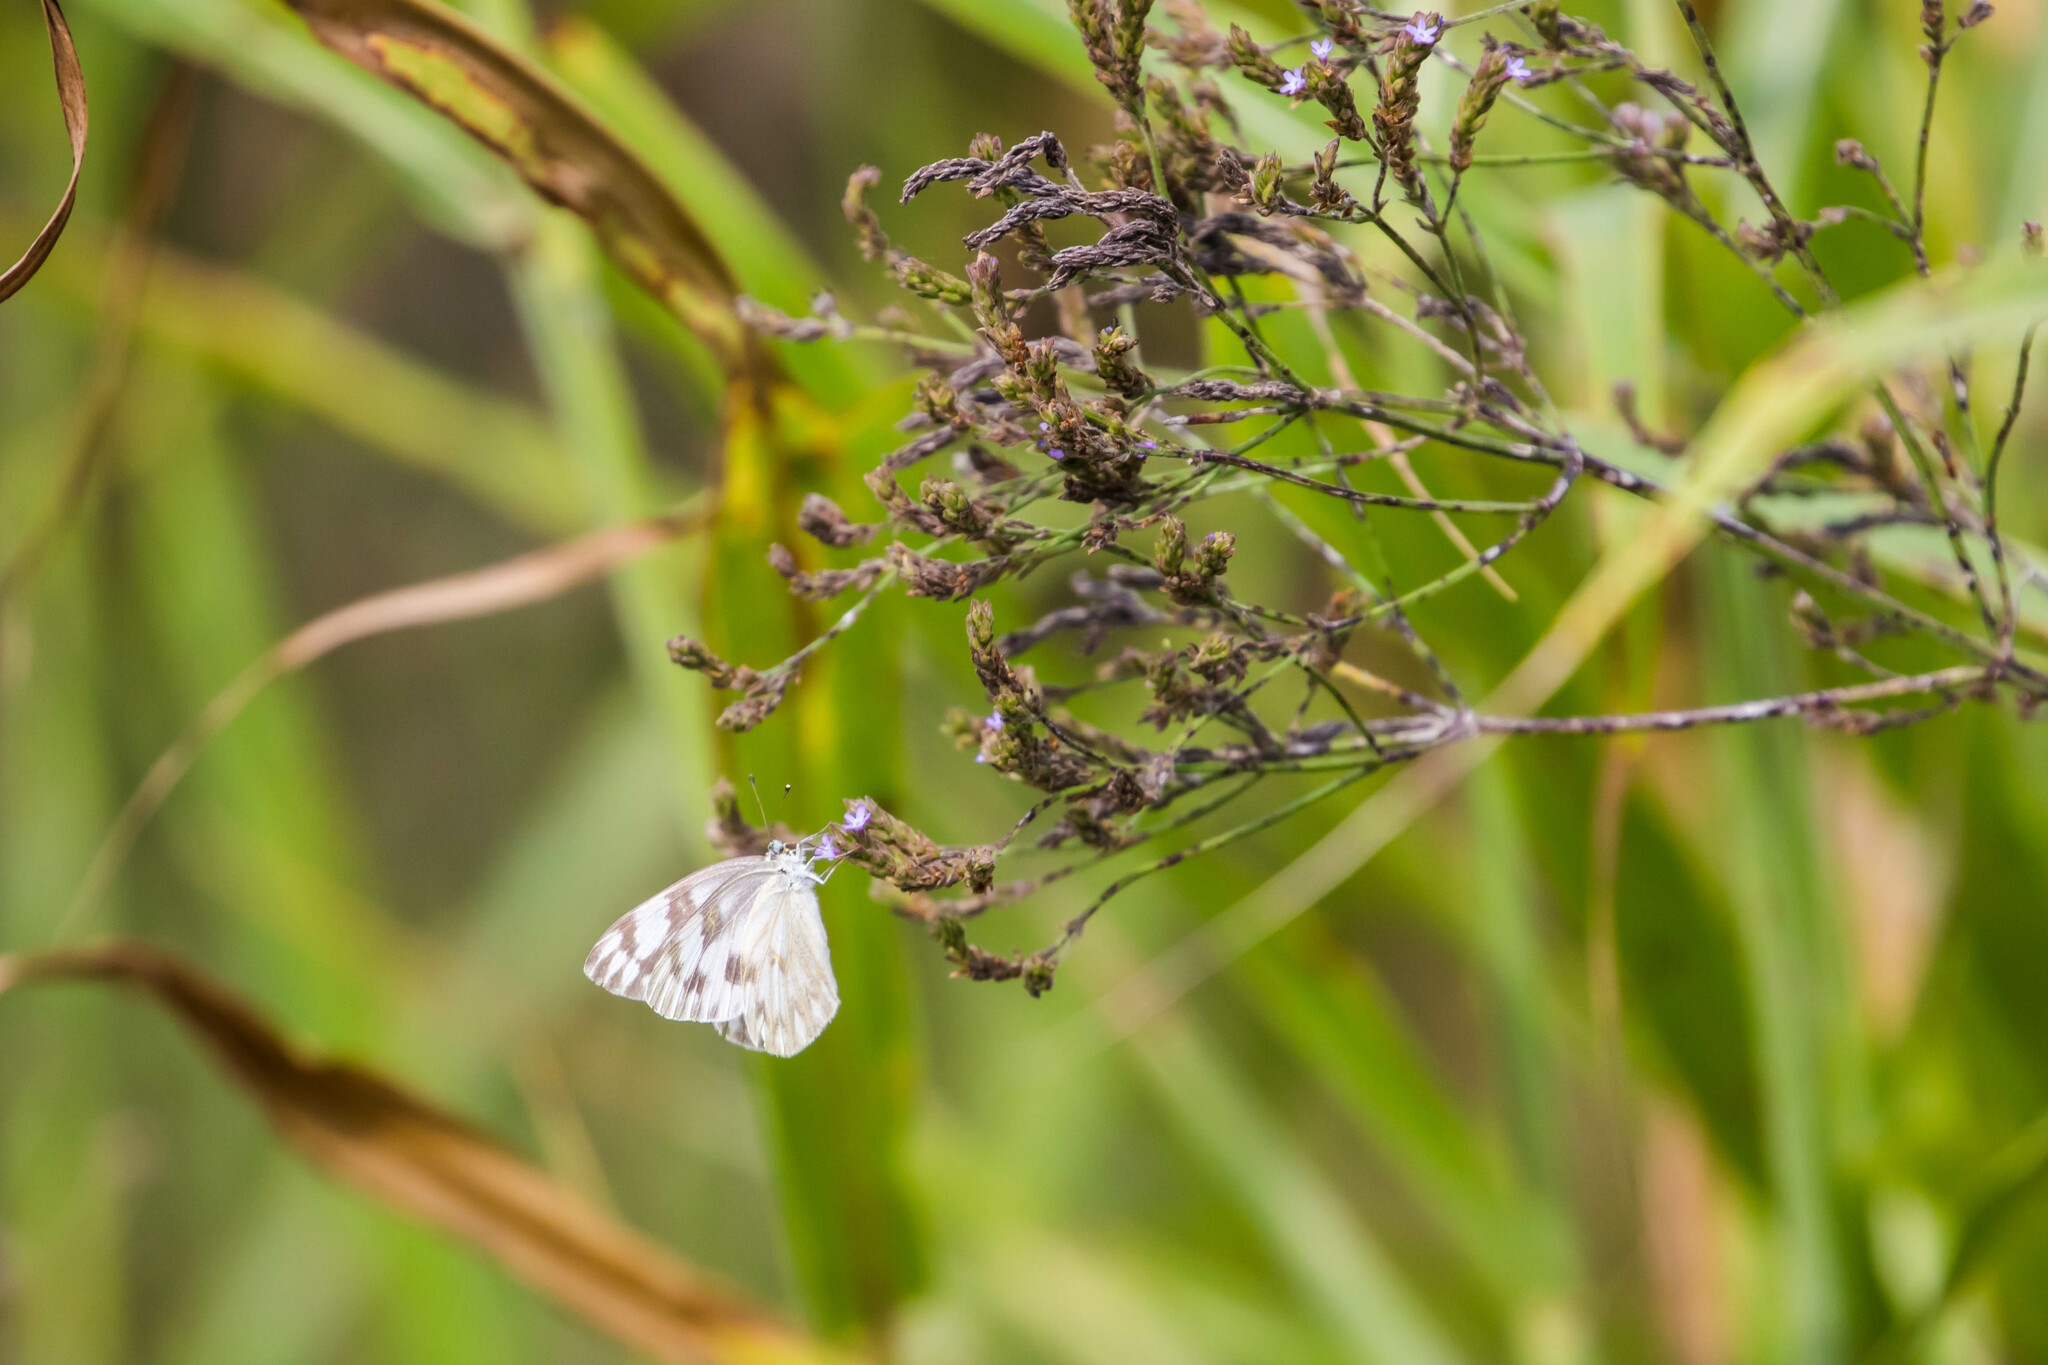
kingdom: Animalia
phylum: Arthropoda
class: Insecta
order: Lepidoptera
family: Pieridae
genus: Pontia
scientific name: Pontia protodice
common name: Checkered white
